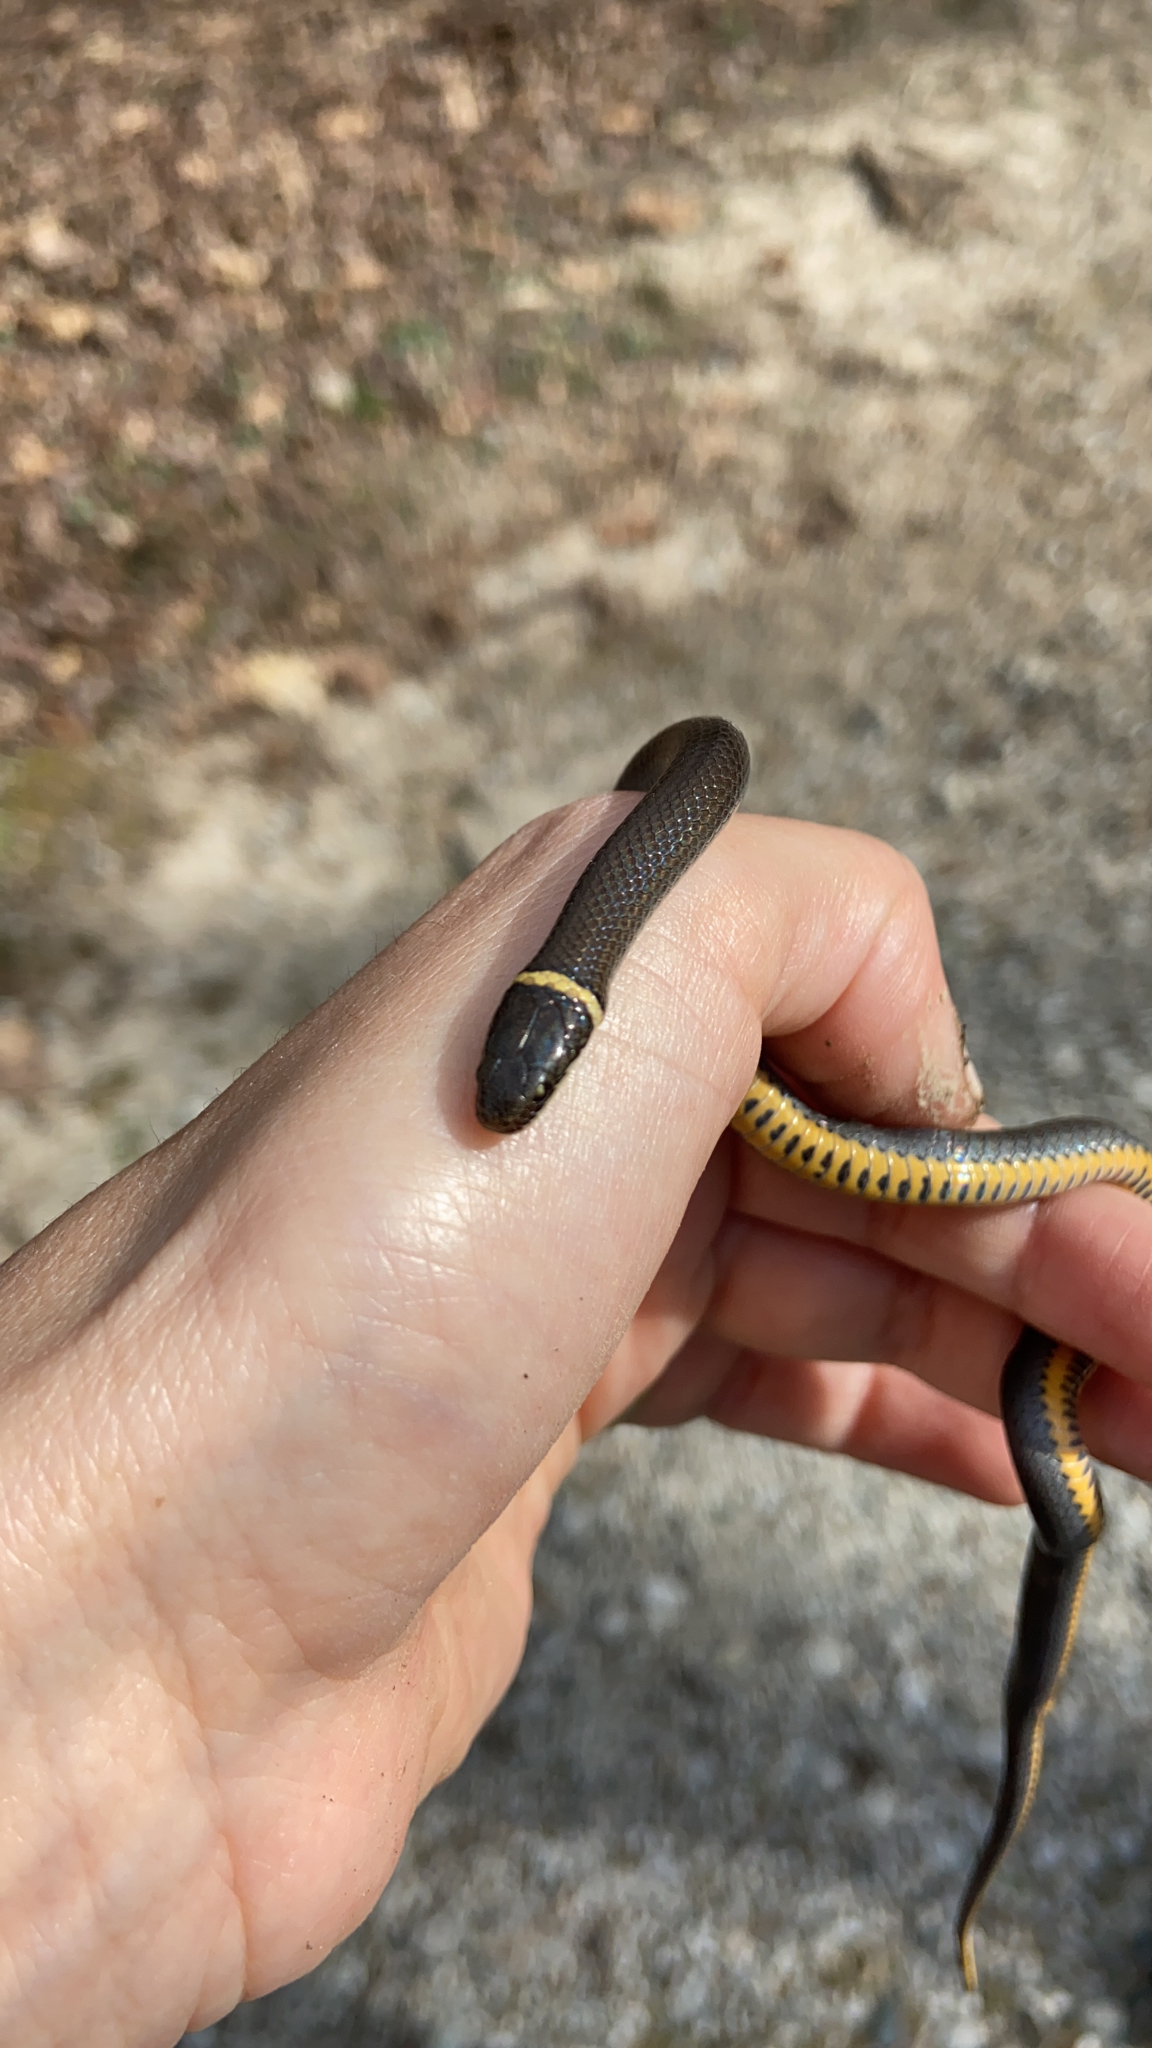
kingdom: Animalia
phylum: Chordata
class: Squamata
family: Colubridae
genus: Diadophis
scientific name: Diadophis punctatus
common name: Ringneck snake
